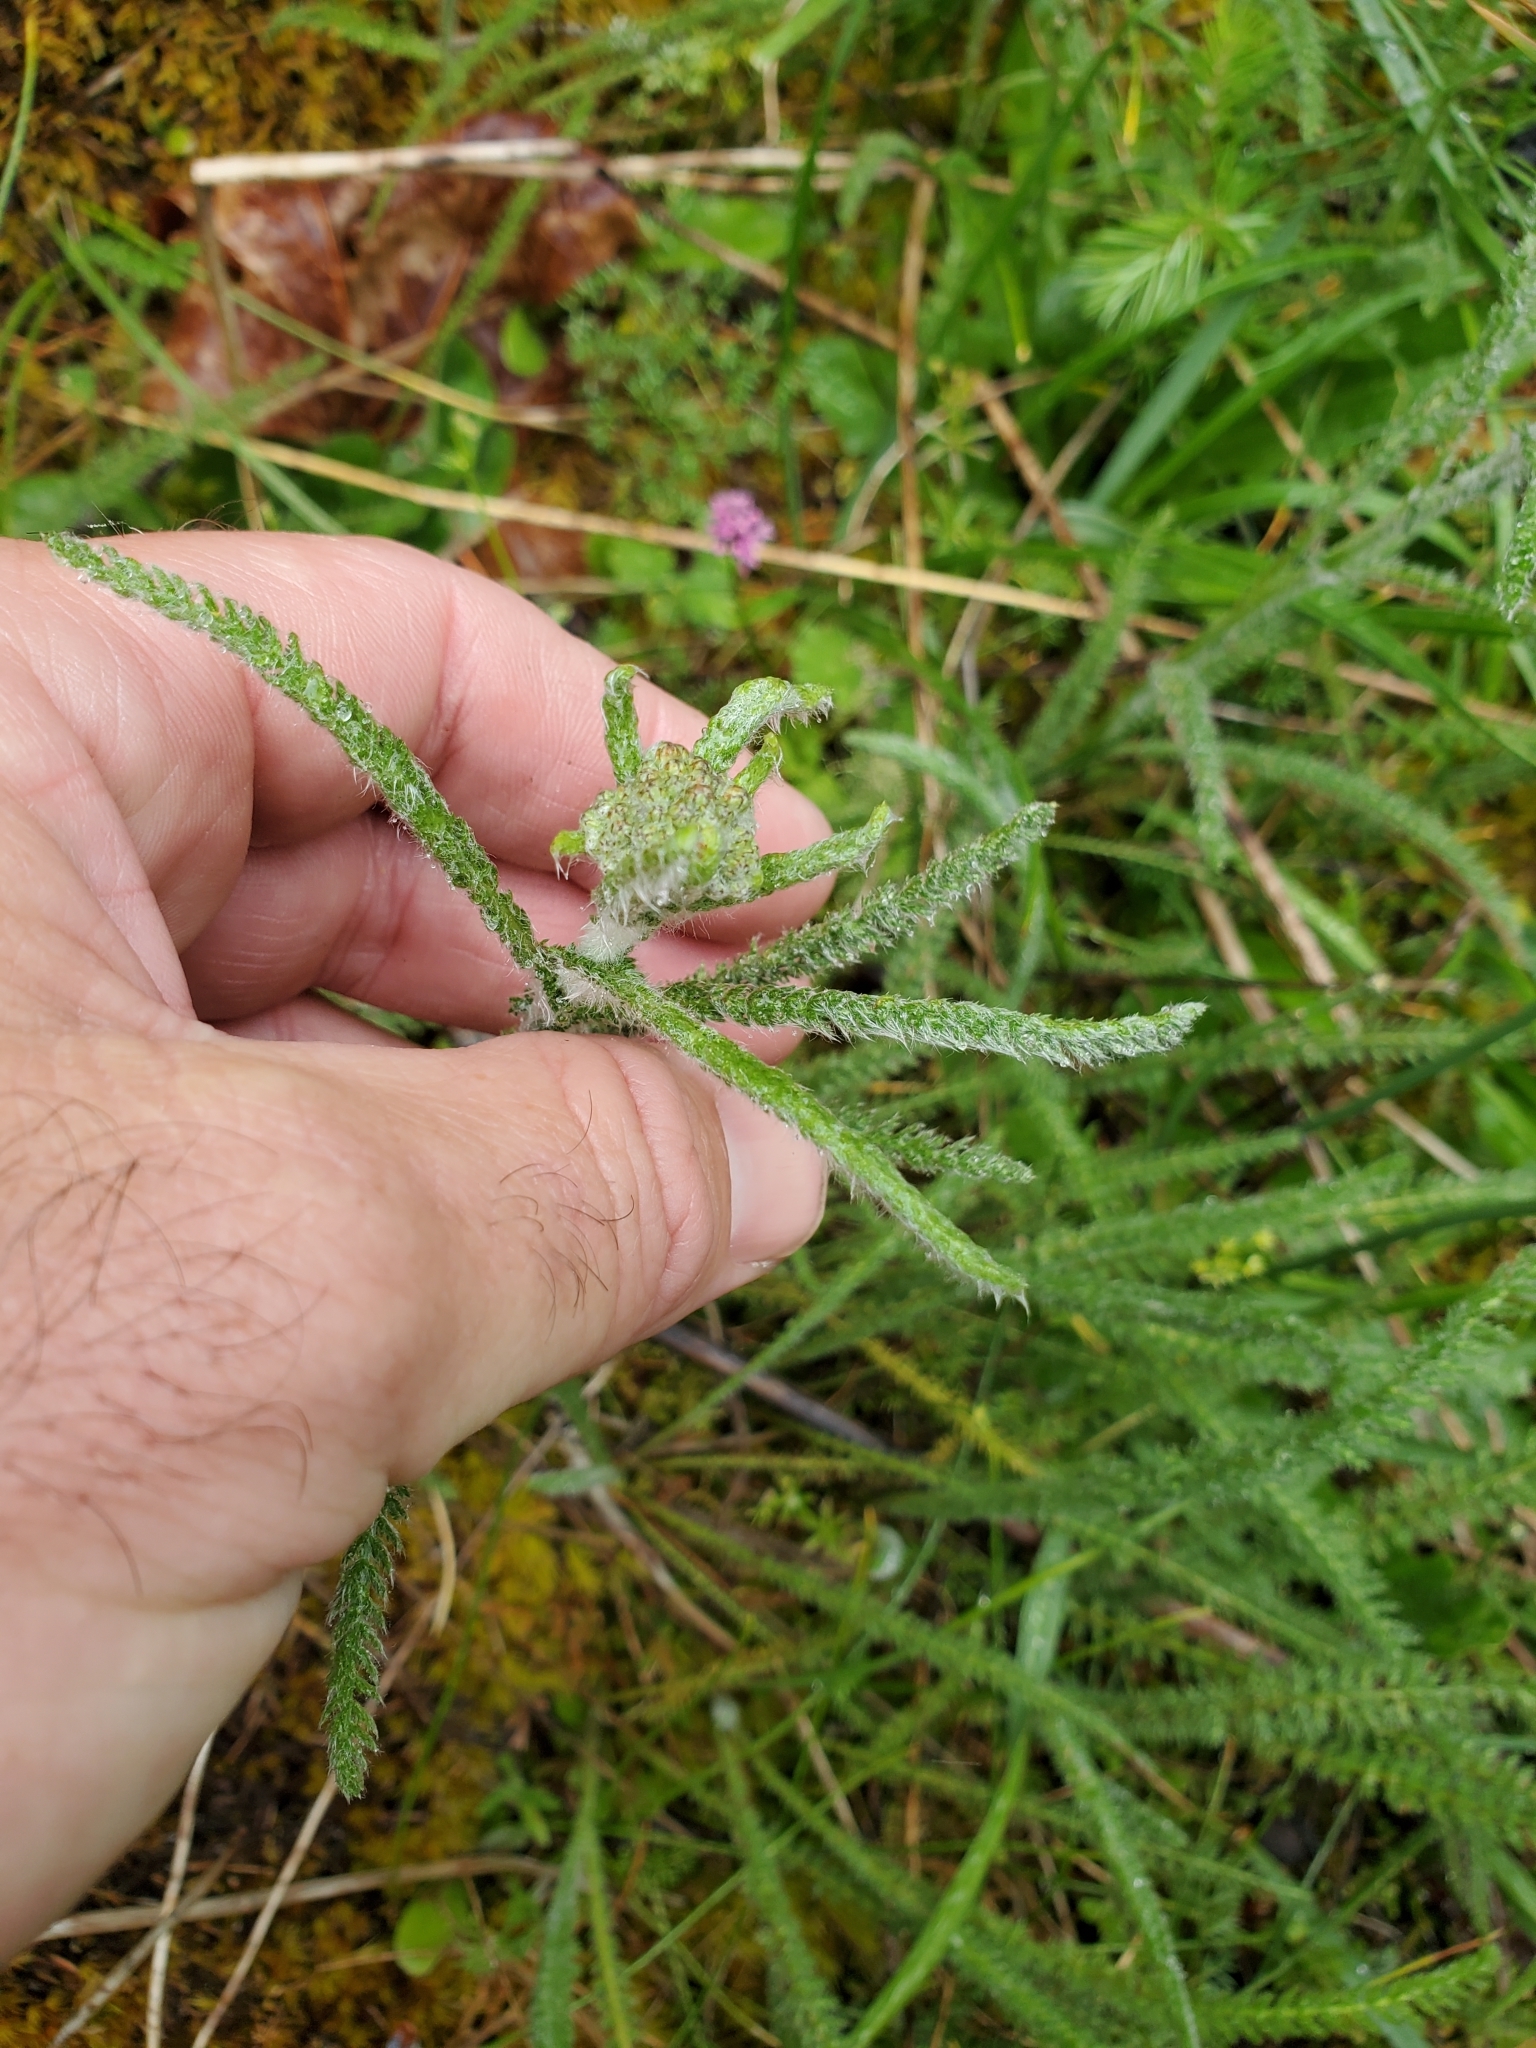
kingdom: Plantae
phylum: Tracheophyta
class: Magnoliopsida
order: Asterales
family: Asteraceae
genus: Achillea
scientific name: Achillea millefolium
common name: Yarrow
